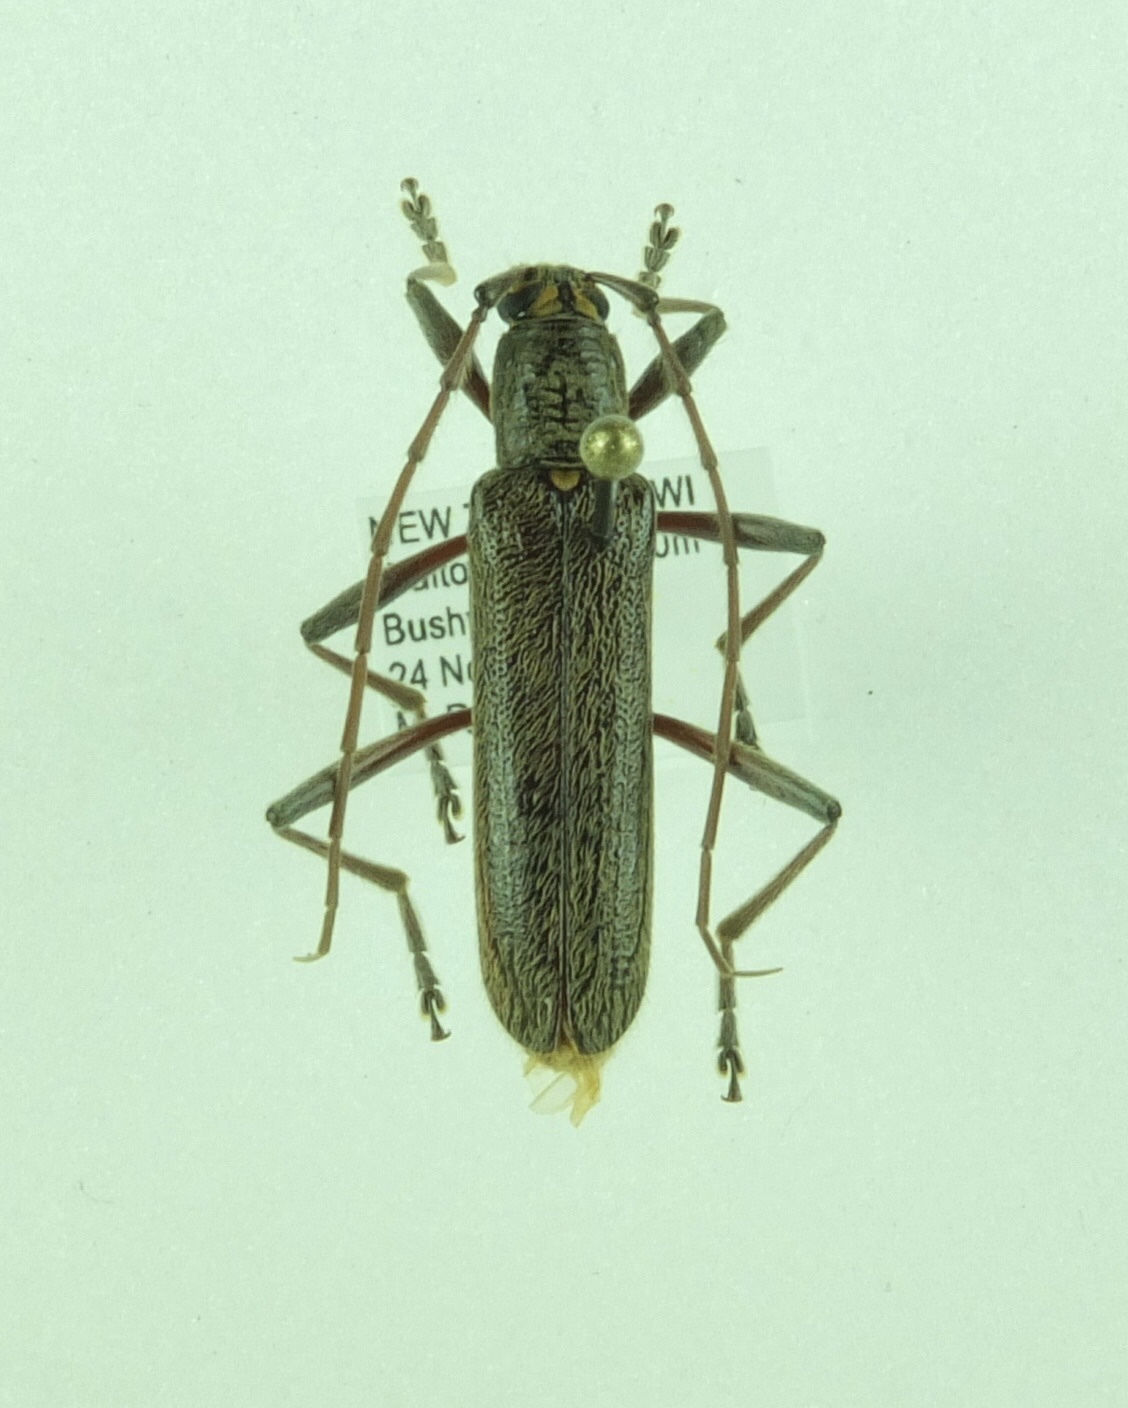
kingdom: Animalia
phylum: Arthropoda
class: Insecta
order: Coleoptera
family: Cerambycidae
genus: Oemona
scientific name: Oemona hirta
